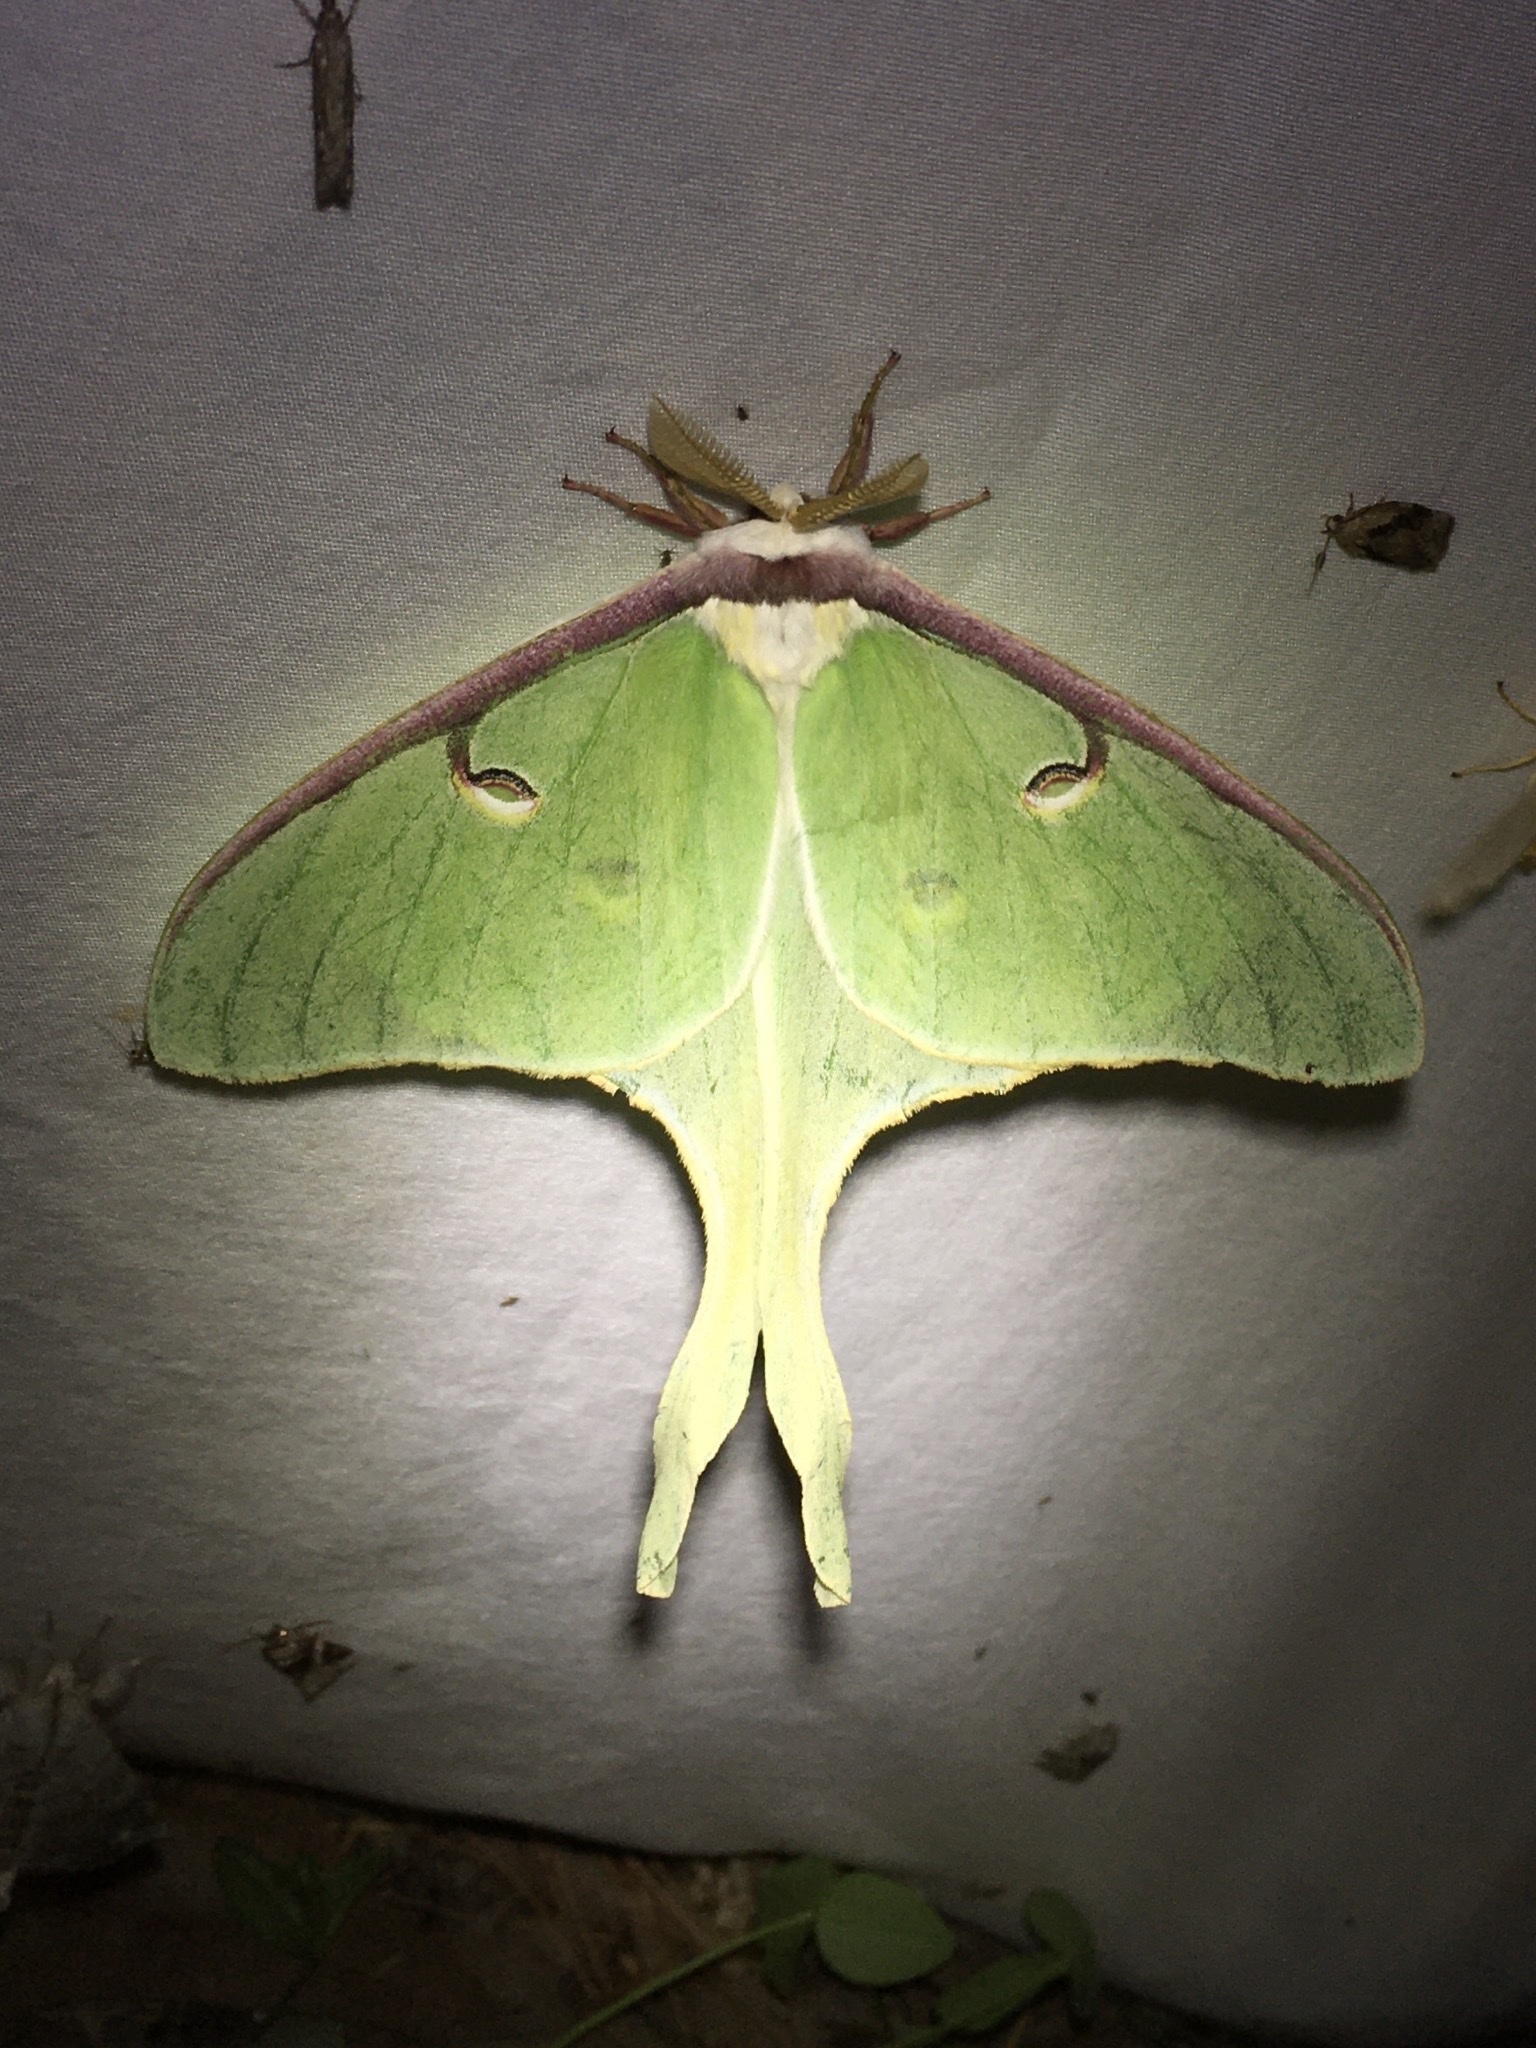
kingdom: Animalia
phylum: Arthropoda
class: Insecta
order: Lepidoptera
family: Saturniidae
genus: Actias
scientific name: Actias luna
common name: Luna moth
